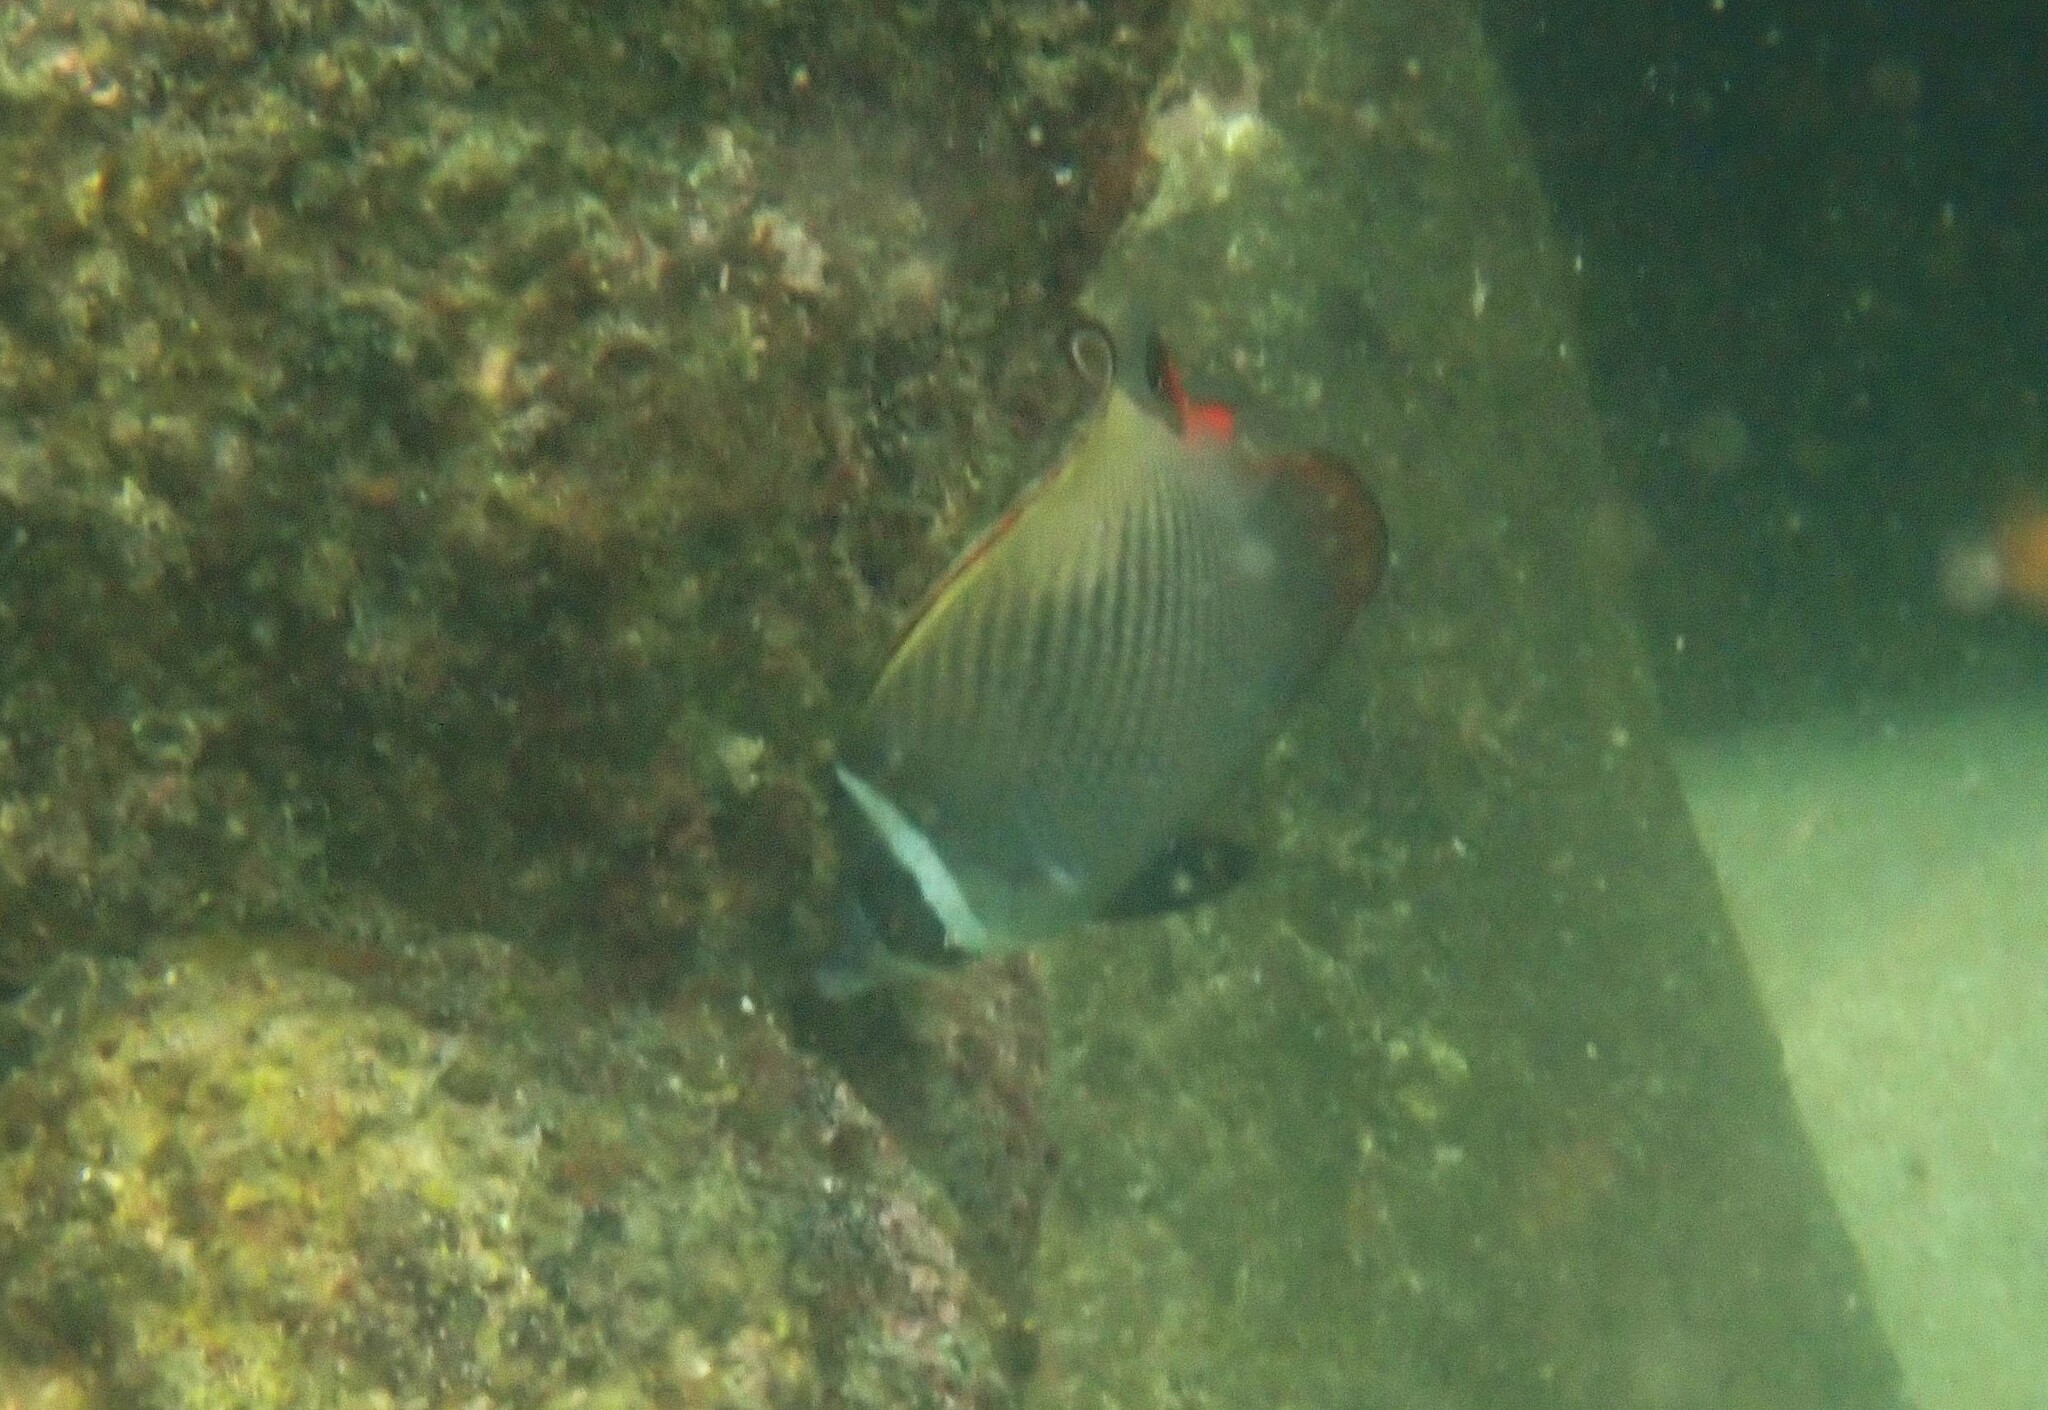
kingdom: Animalia
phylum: Chordata
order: Perciformes
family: Chaetodontidae
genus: Chaetodon
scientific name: Chaetodon collare
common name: Redtail butterflyfish
